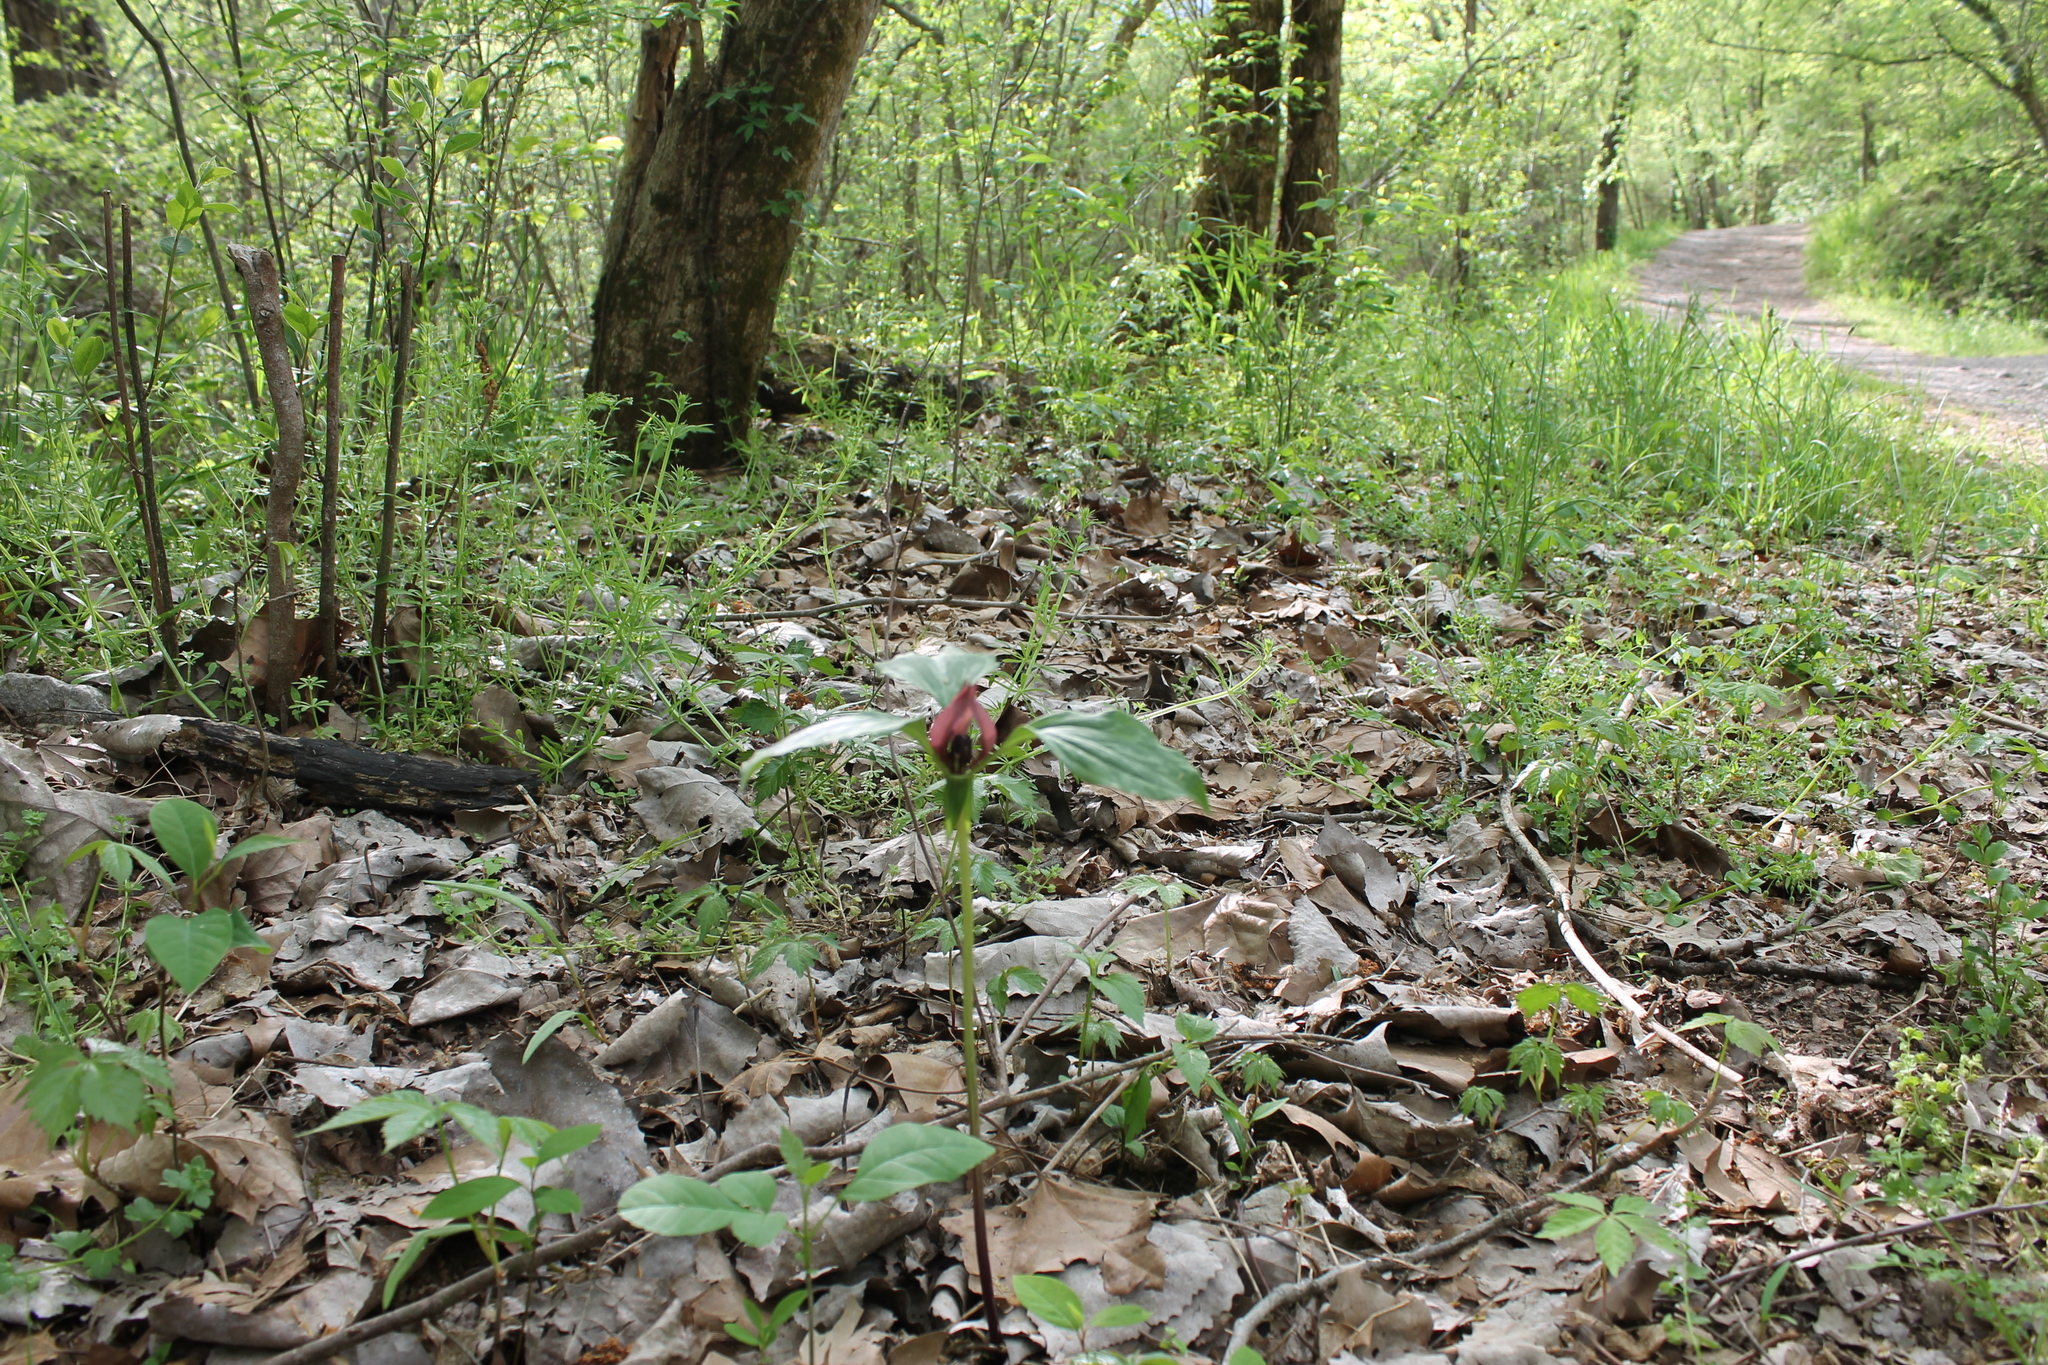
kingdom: Plantae
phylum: Tracheophyta
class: Liliopsida
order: Liliales
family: Melanthiaceae
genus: Trillium
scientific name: Trillium recurvatum
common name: Bloody butcher
